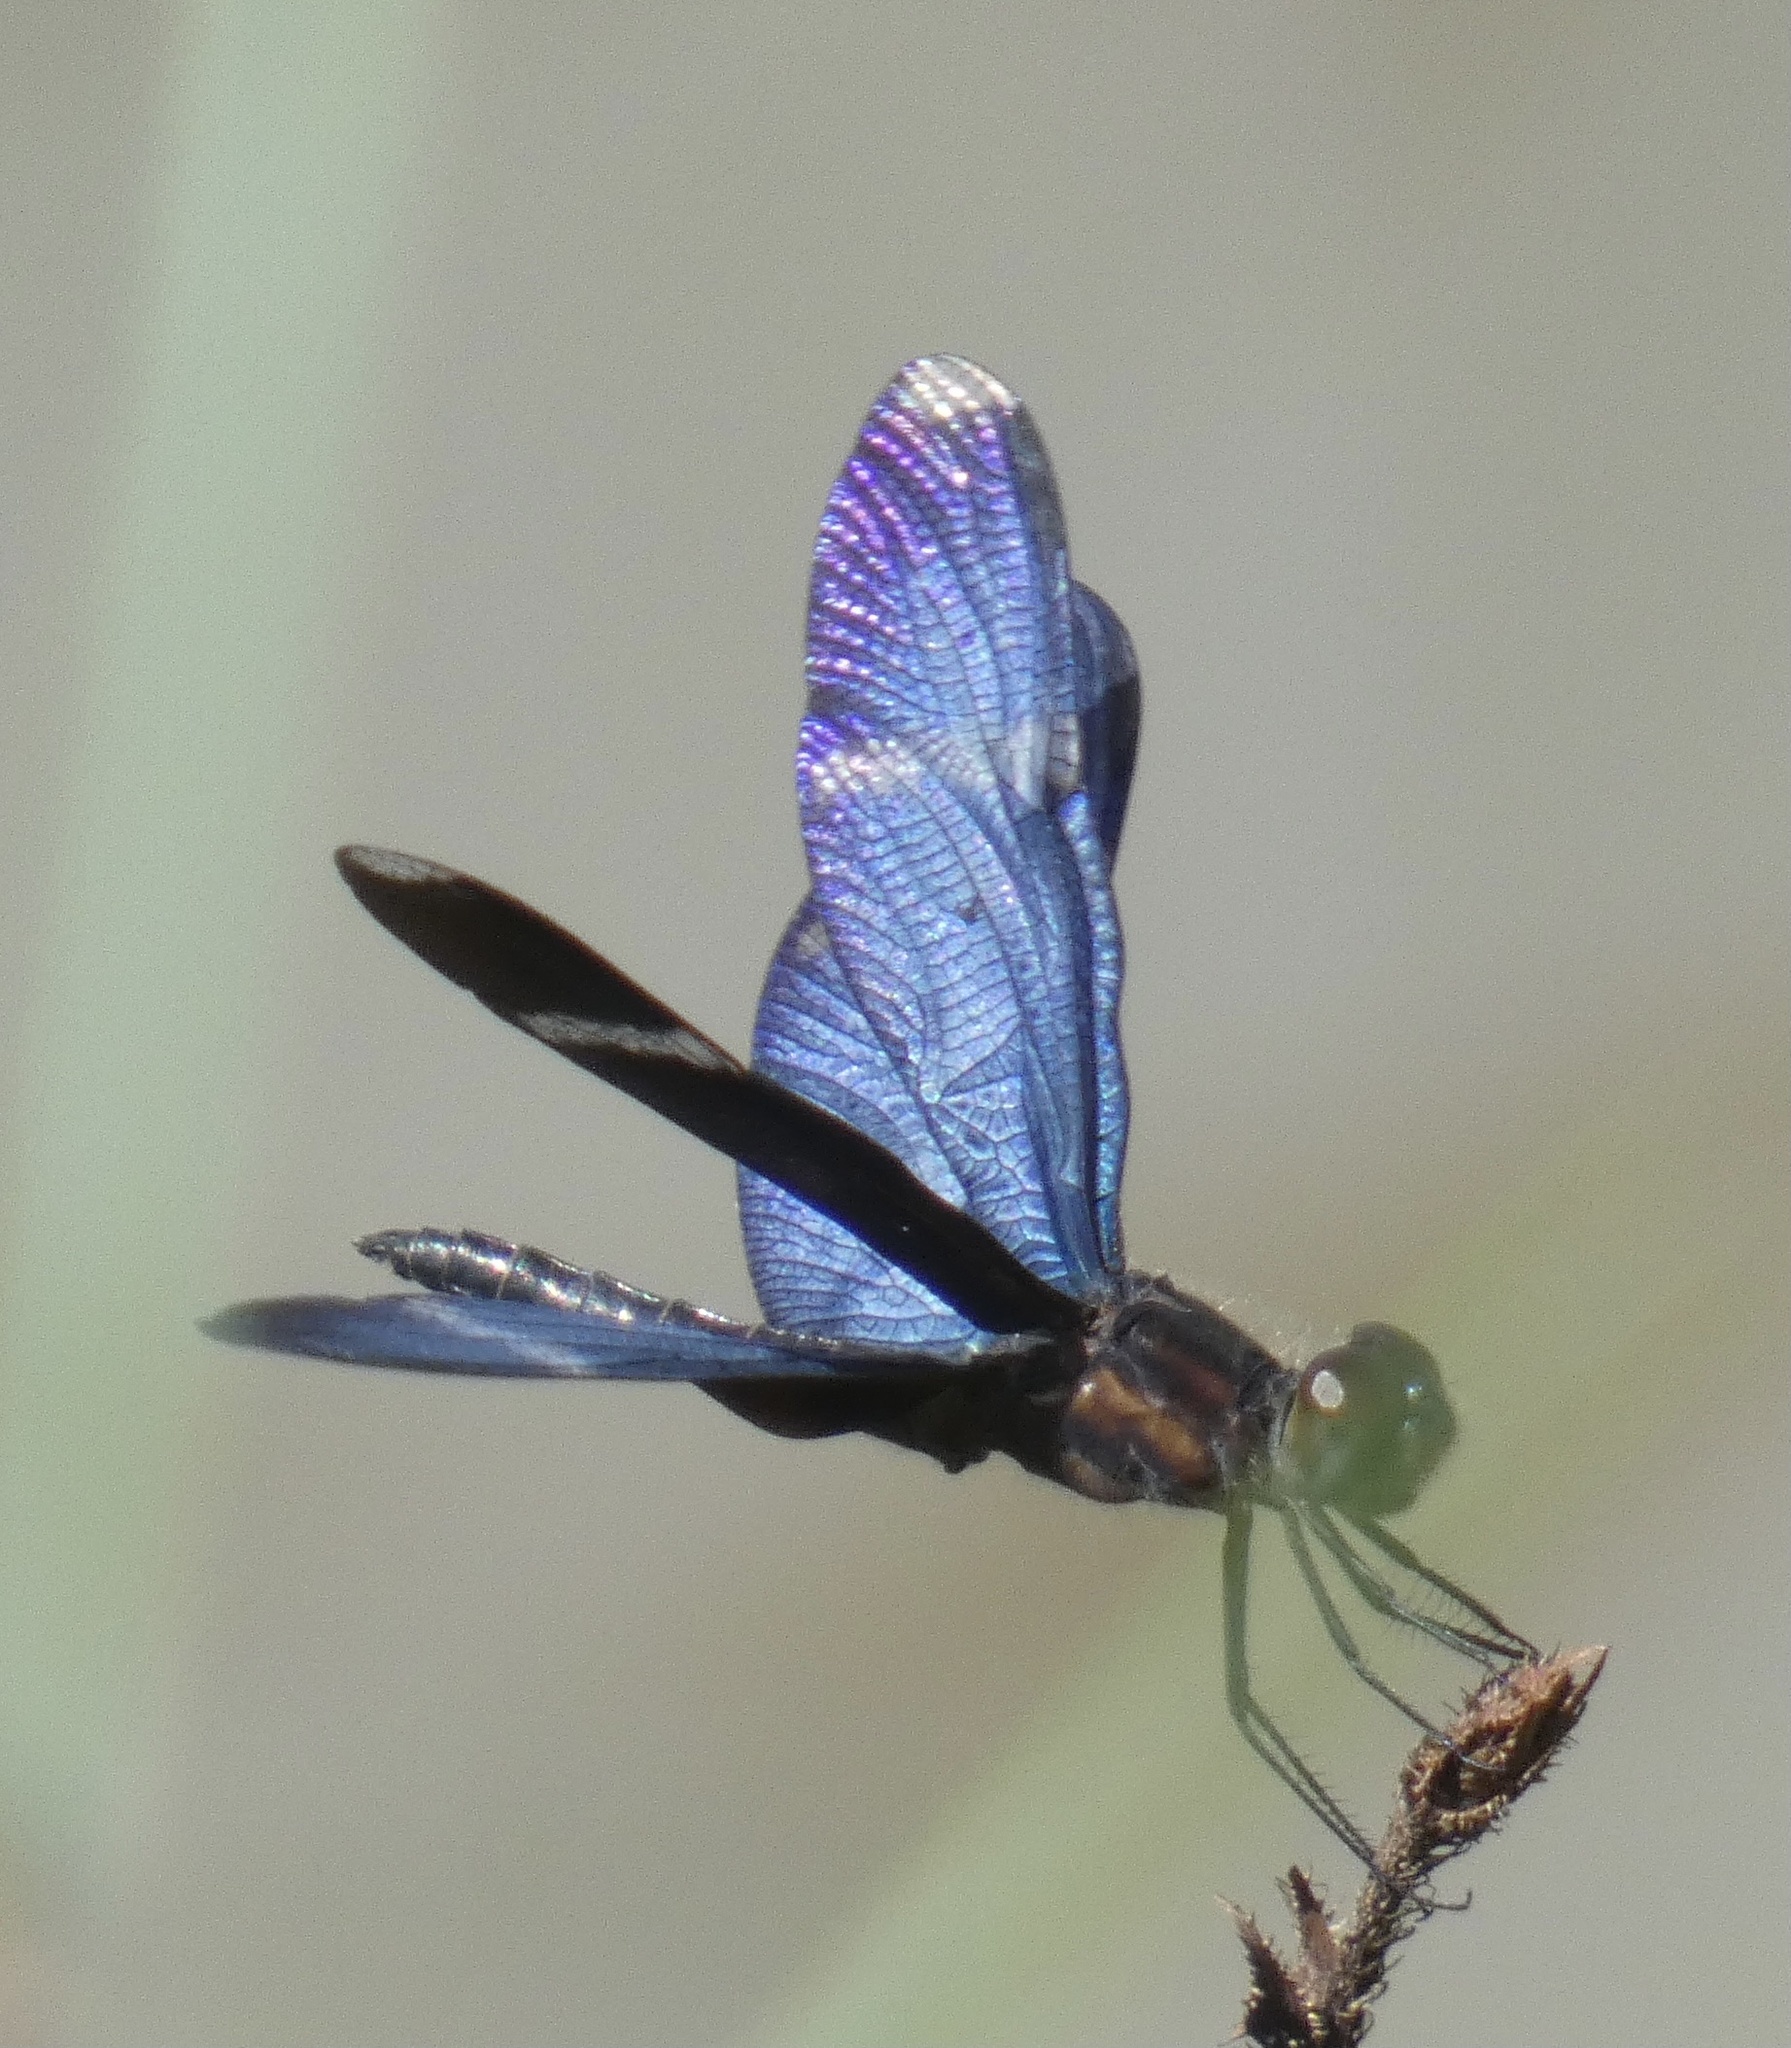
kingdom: Animalia
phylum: Arthropoda
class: Insecta
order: Odonata
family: Libellulidae
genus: Zenithoptera
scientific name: Zenithoptera lanei
